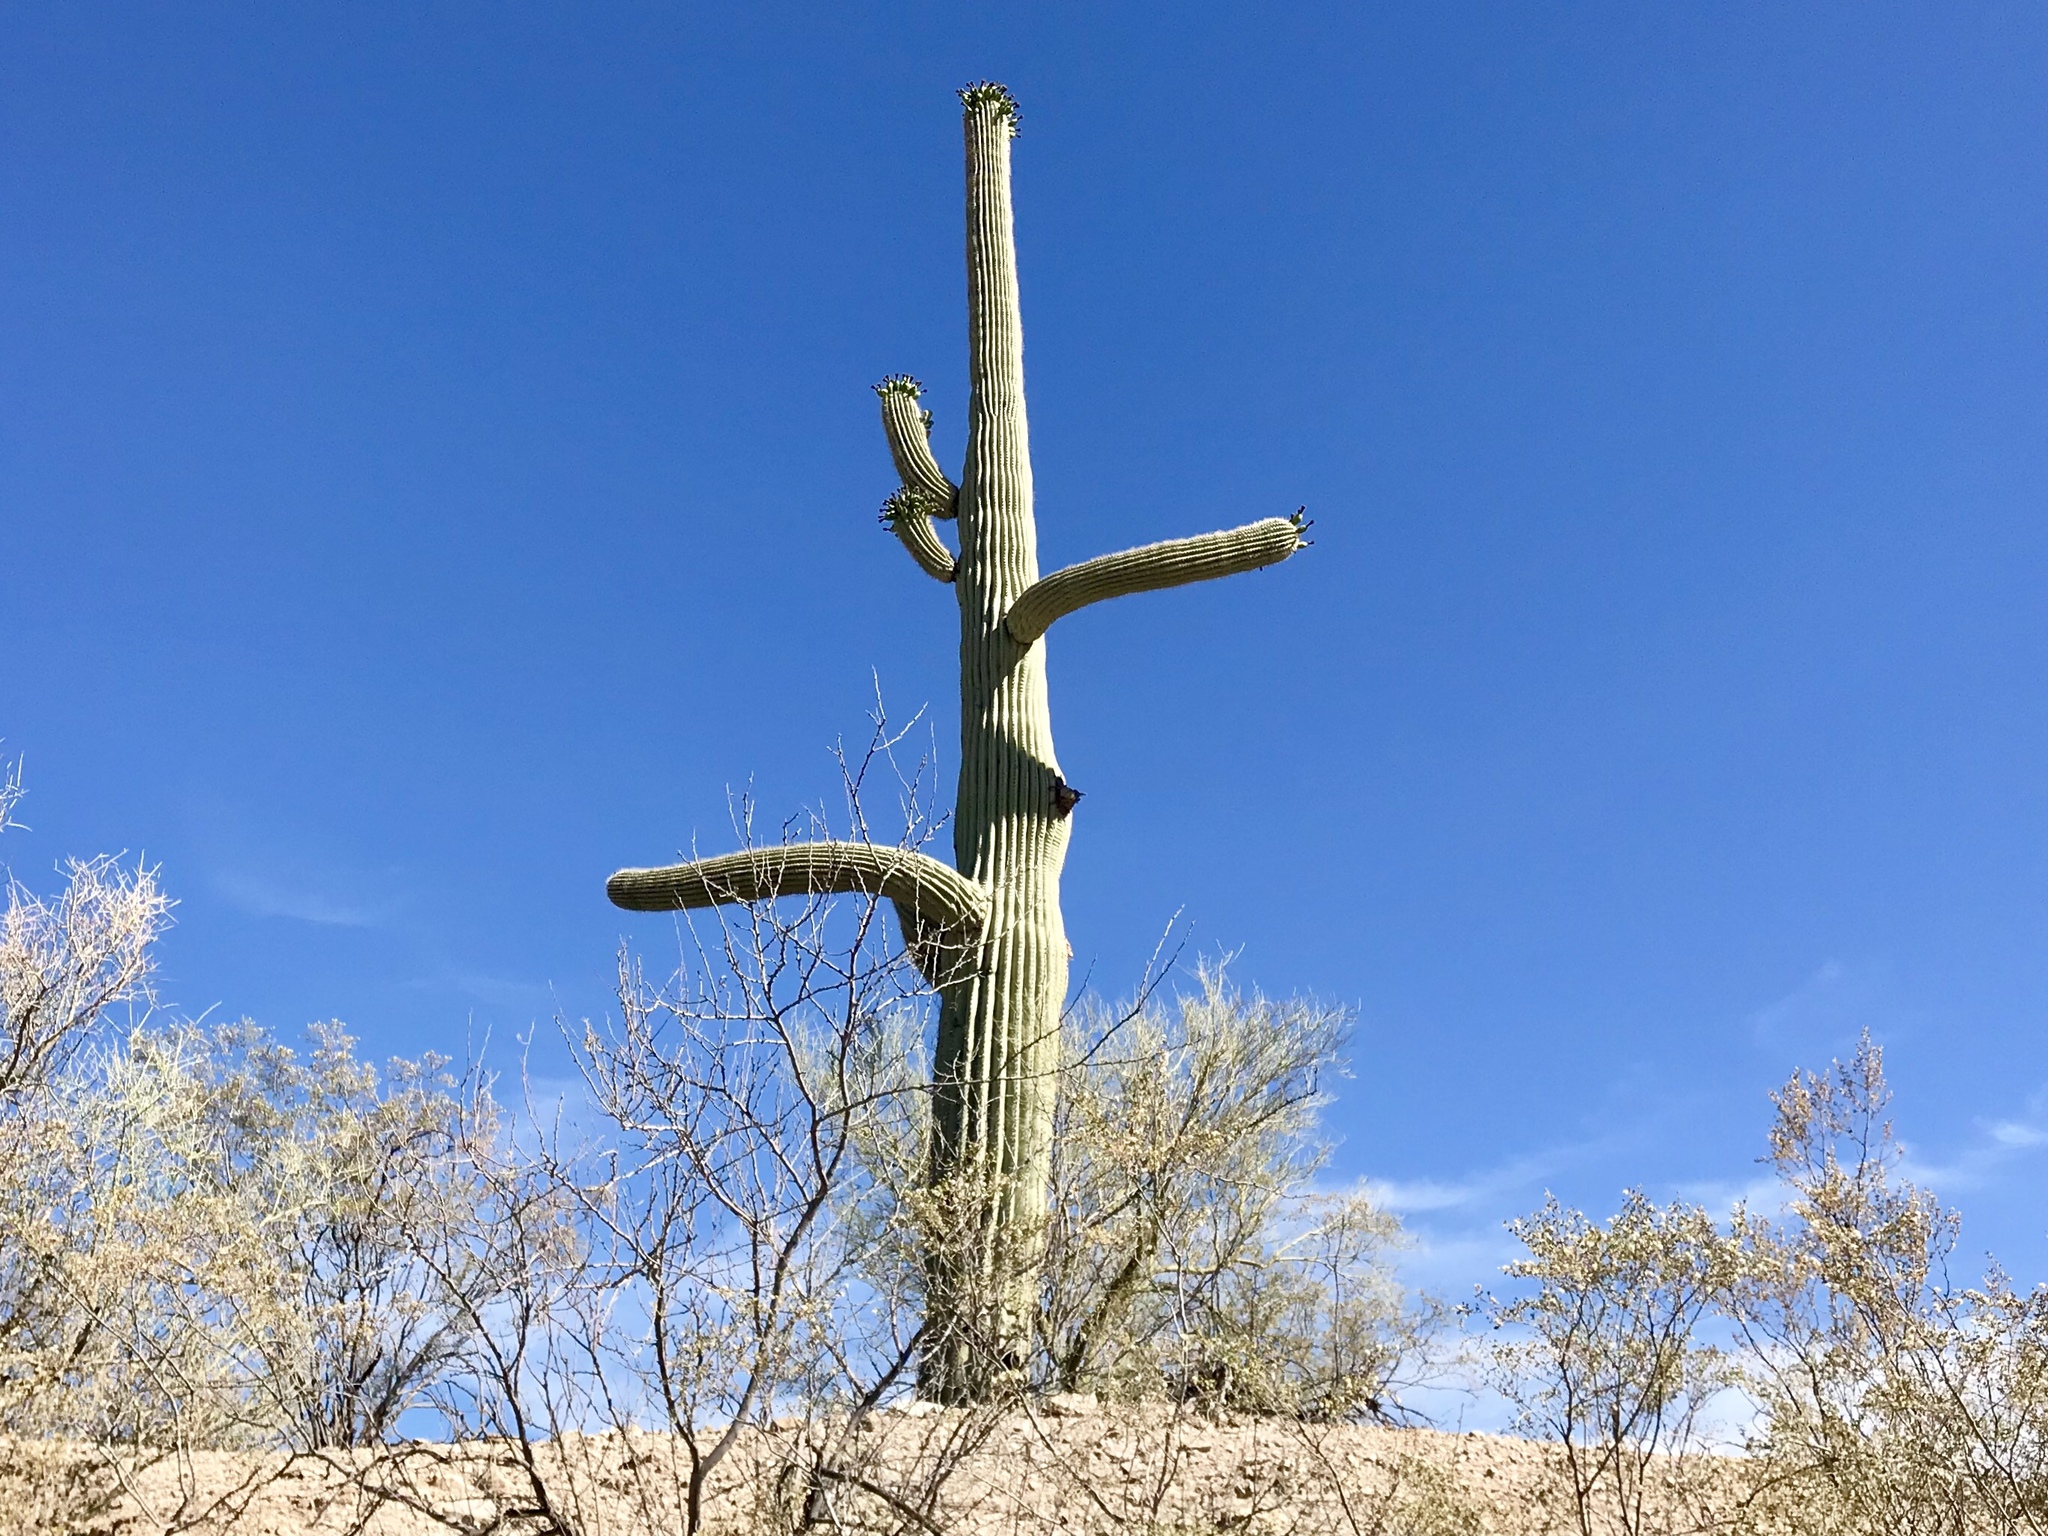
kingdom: Plantae
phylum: Tracheophyta
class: Magnoliopsida
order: Caryophyllales
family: Cactaceae
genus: Carnegiea
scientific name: Carnegiea gigantea
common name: Saguaro
